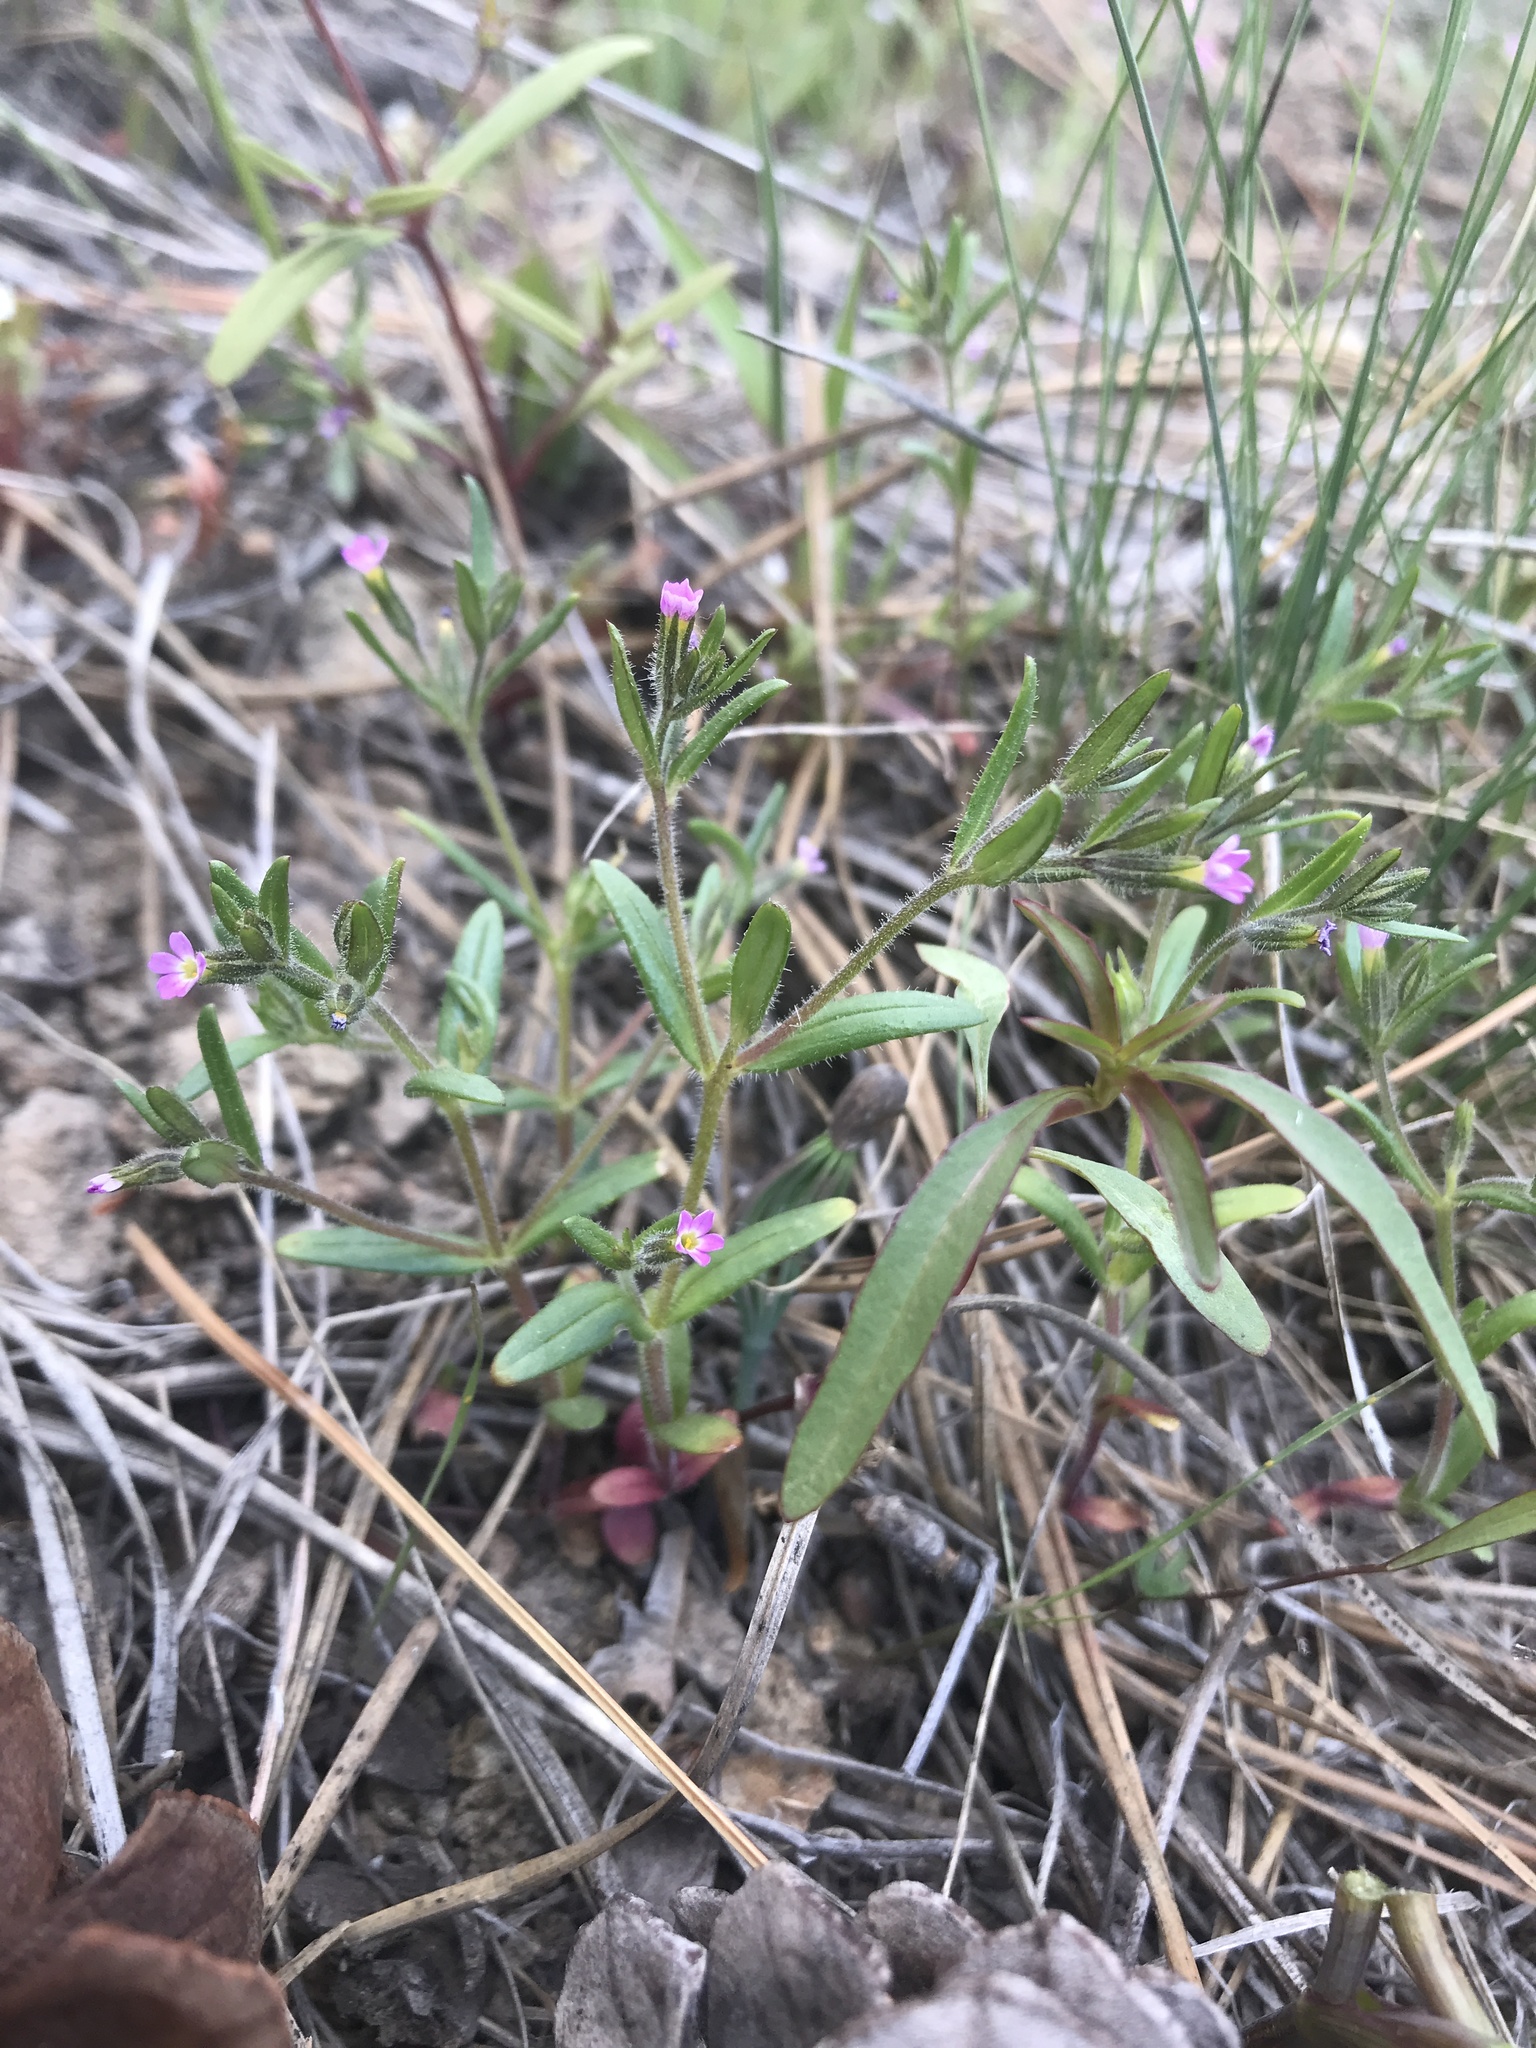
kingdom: Plantae
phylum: Tracheophyta
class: Magnoliopsida
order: Ericales
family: Polemoniaceae
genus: Phlox
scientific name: Phlox gracilis
